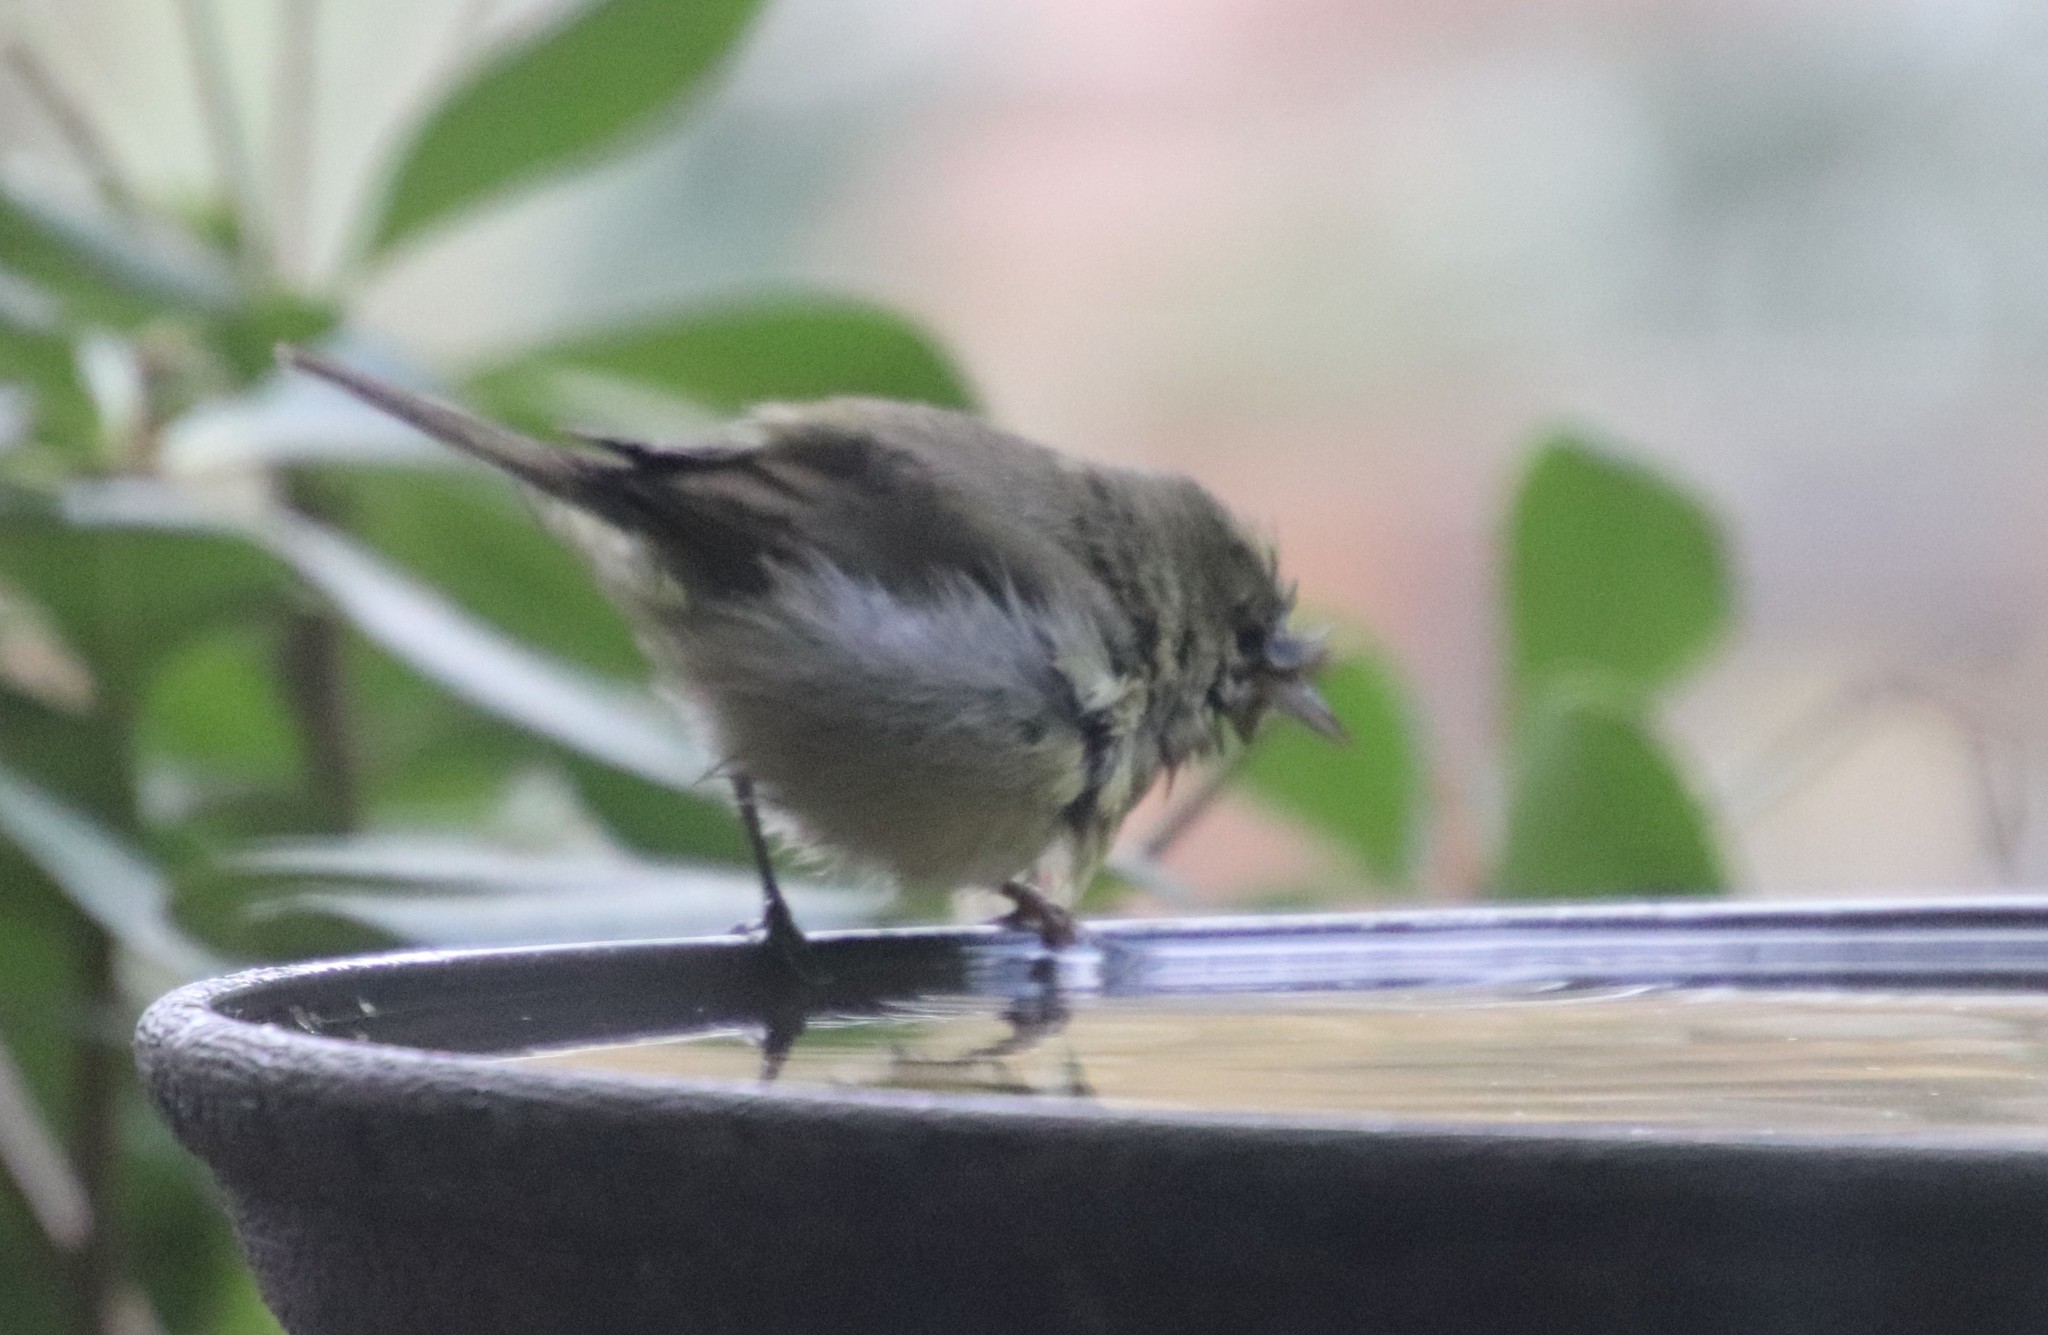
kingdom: Animalia
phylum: Chordata
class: Aves
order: Passeriformes
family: Parulidae
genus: Leiothlypis
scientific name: Leiothlypis celata
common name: Orange-crowned warbler
